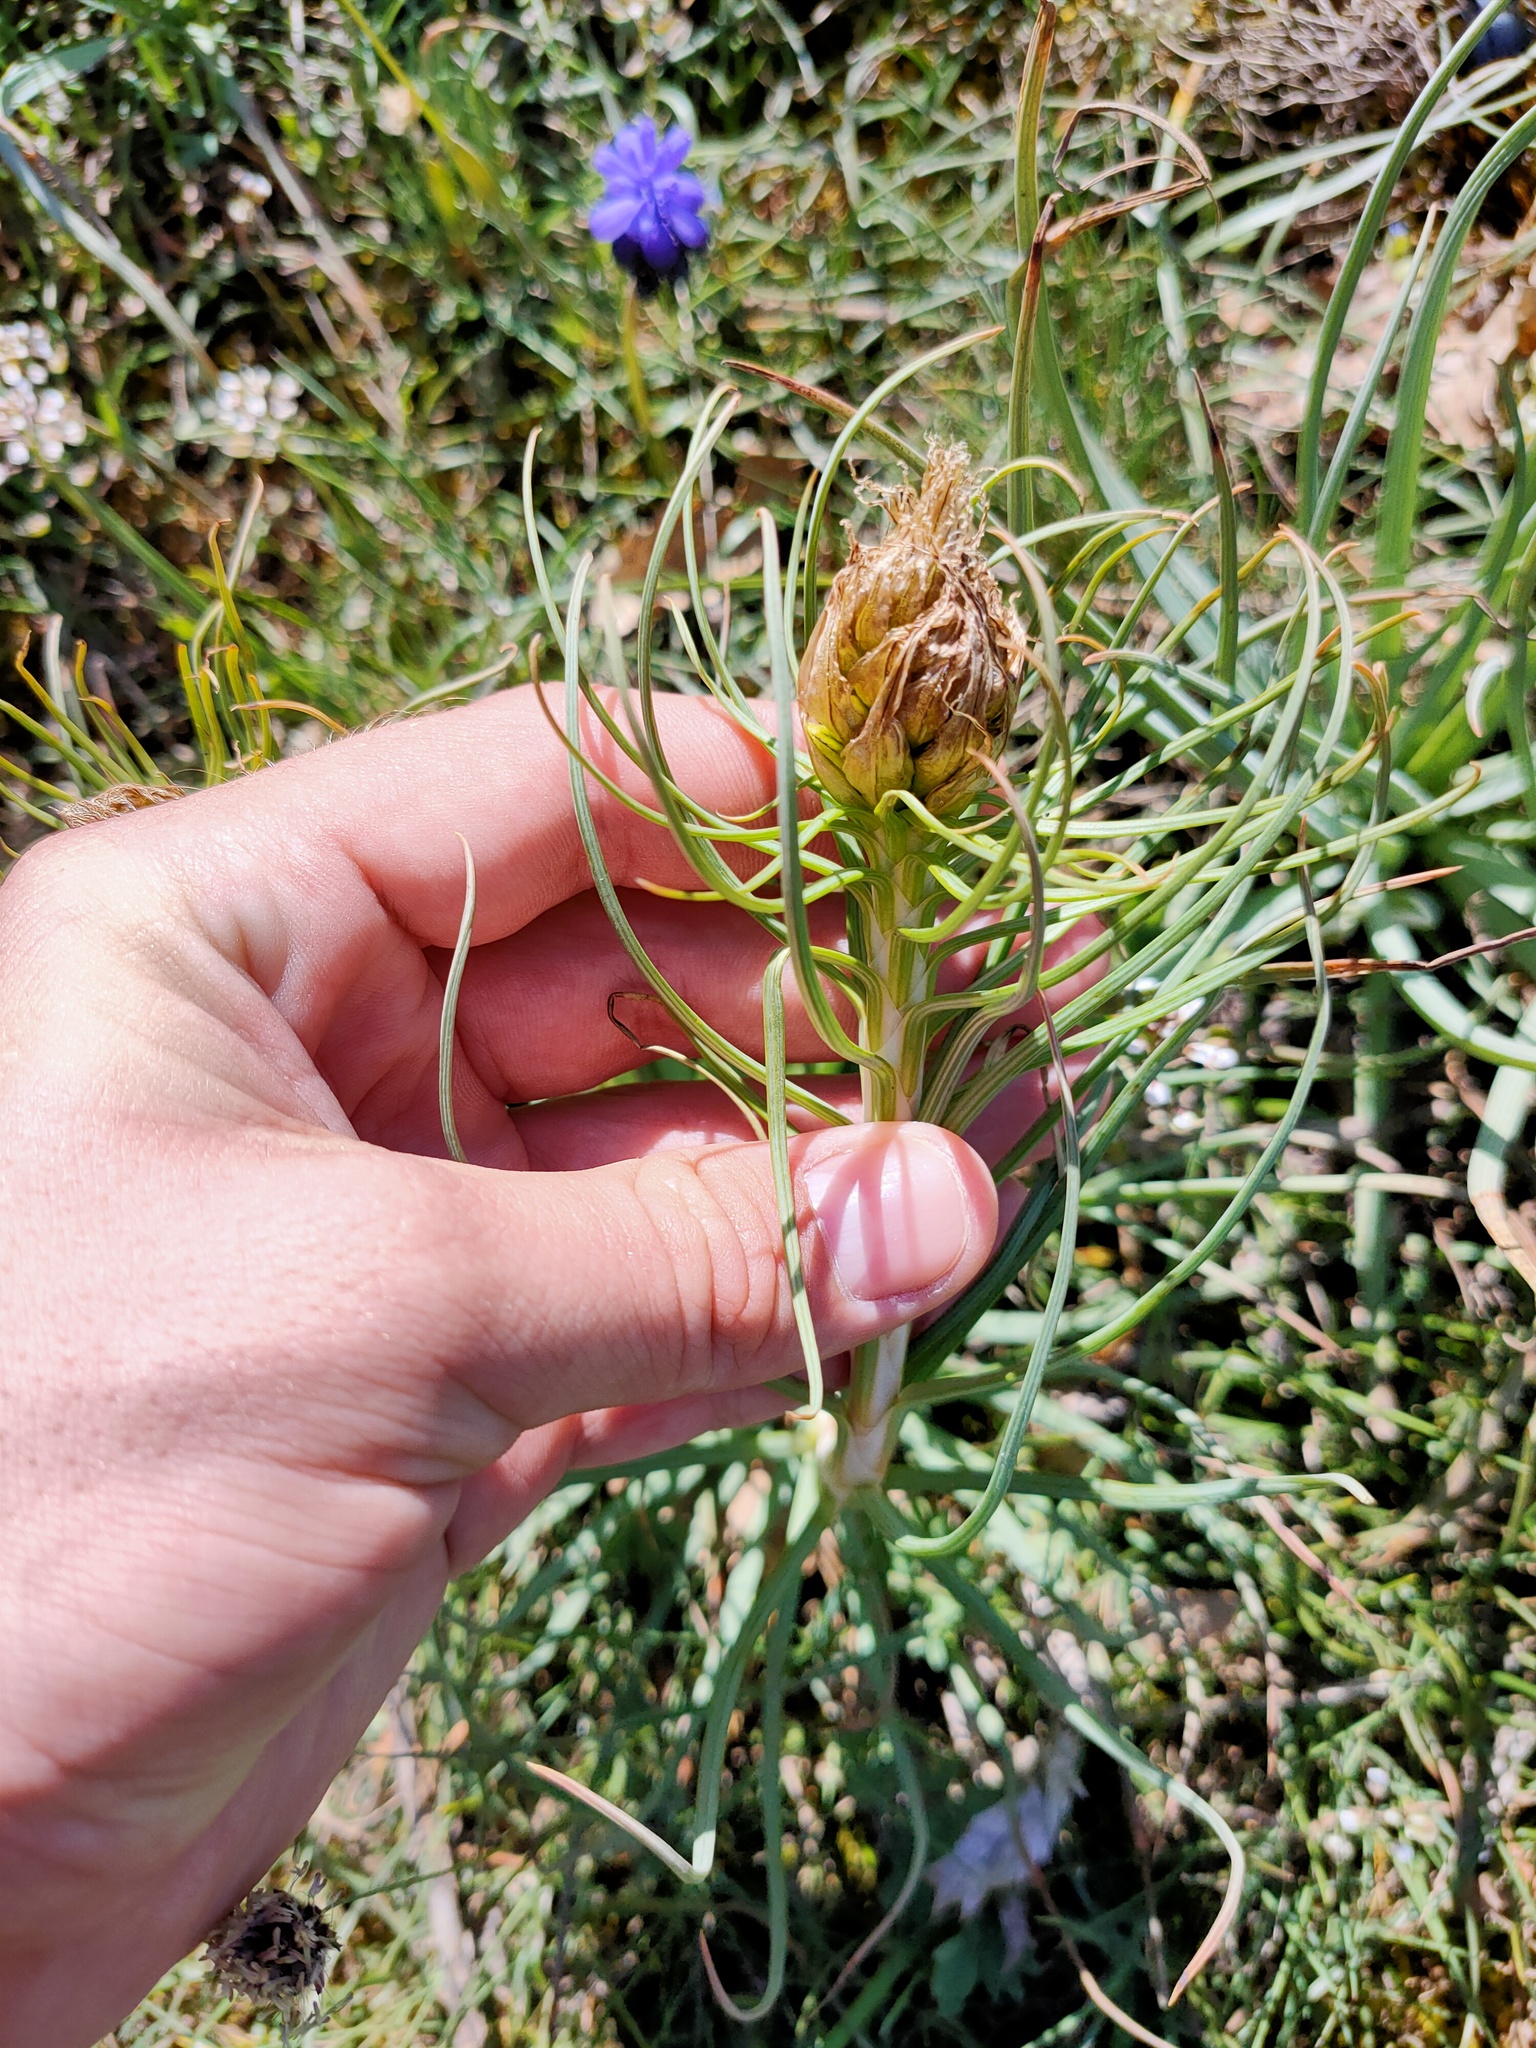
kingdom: Plantae
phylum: Tracheophyta
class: Liliopsida
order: Asparagales
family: Asphodelaceae
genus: Asphodeline
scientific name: Asphodeline lutea
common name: Yellow asphodel
